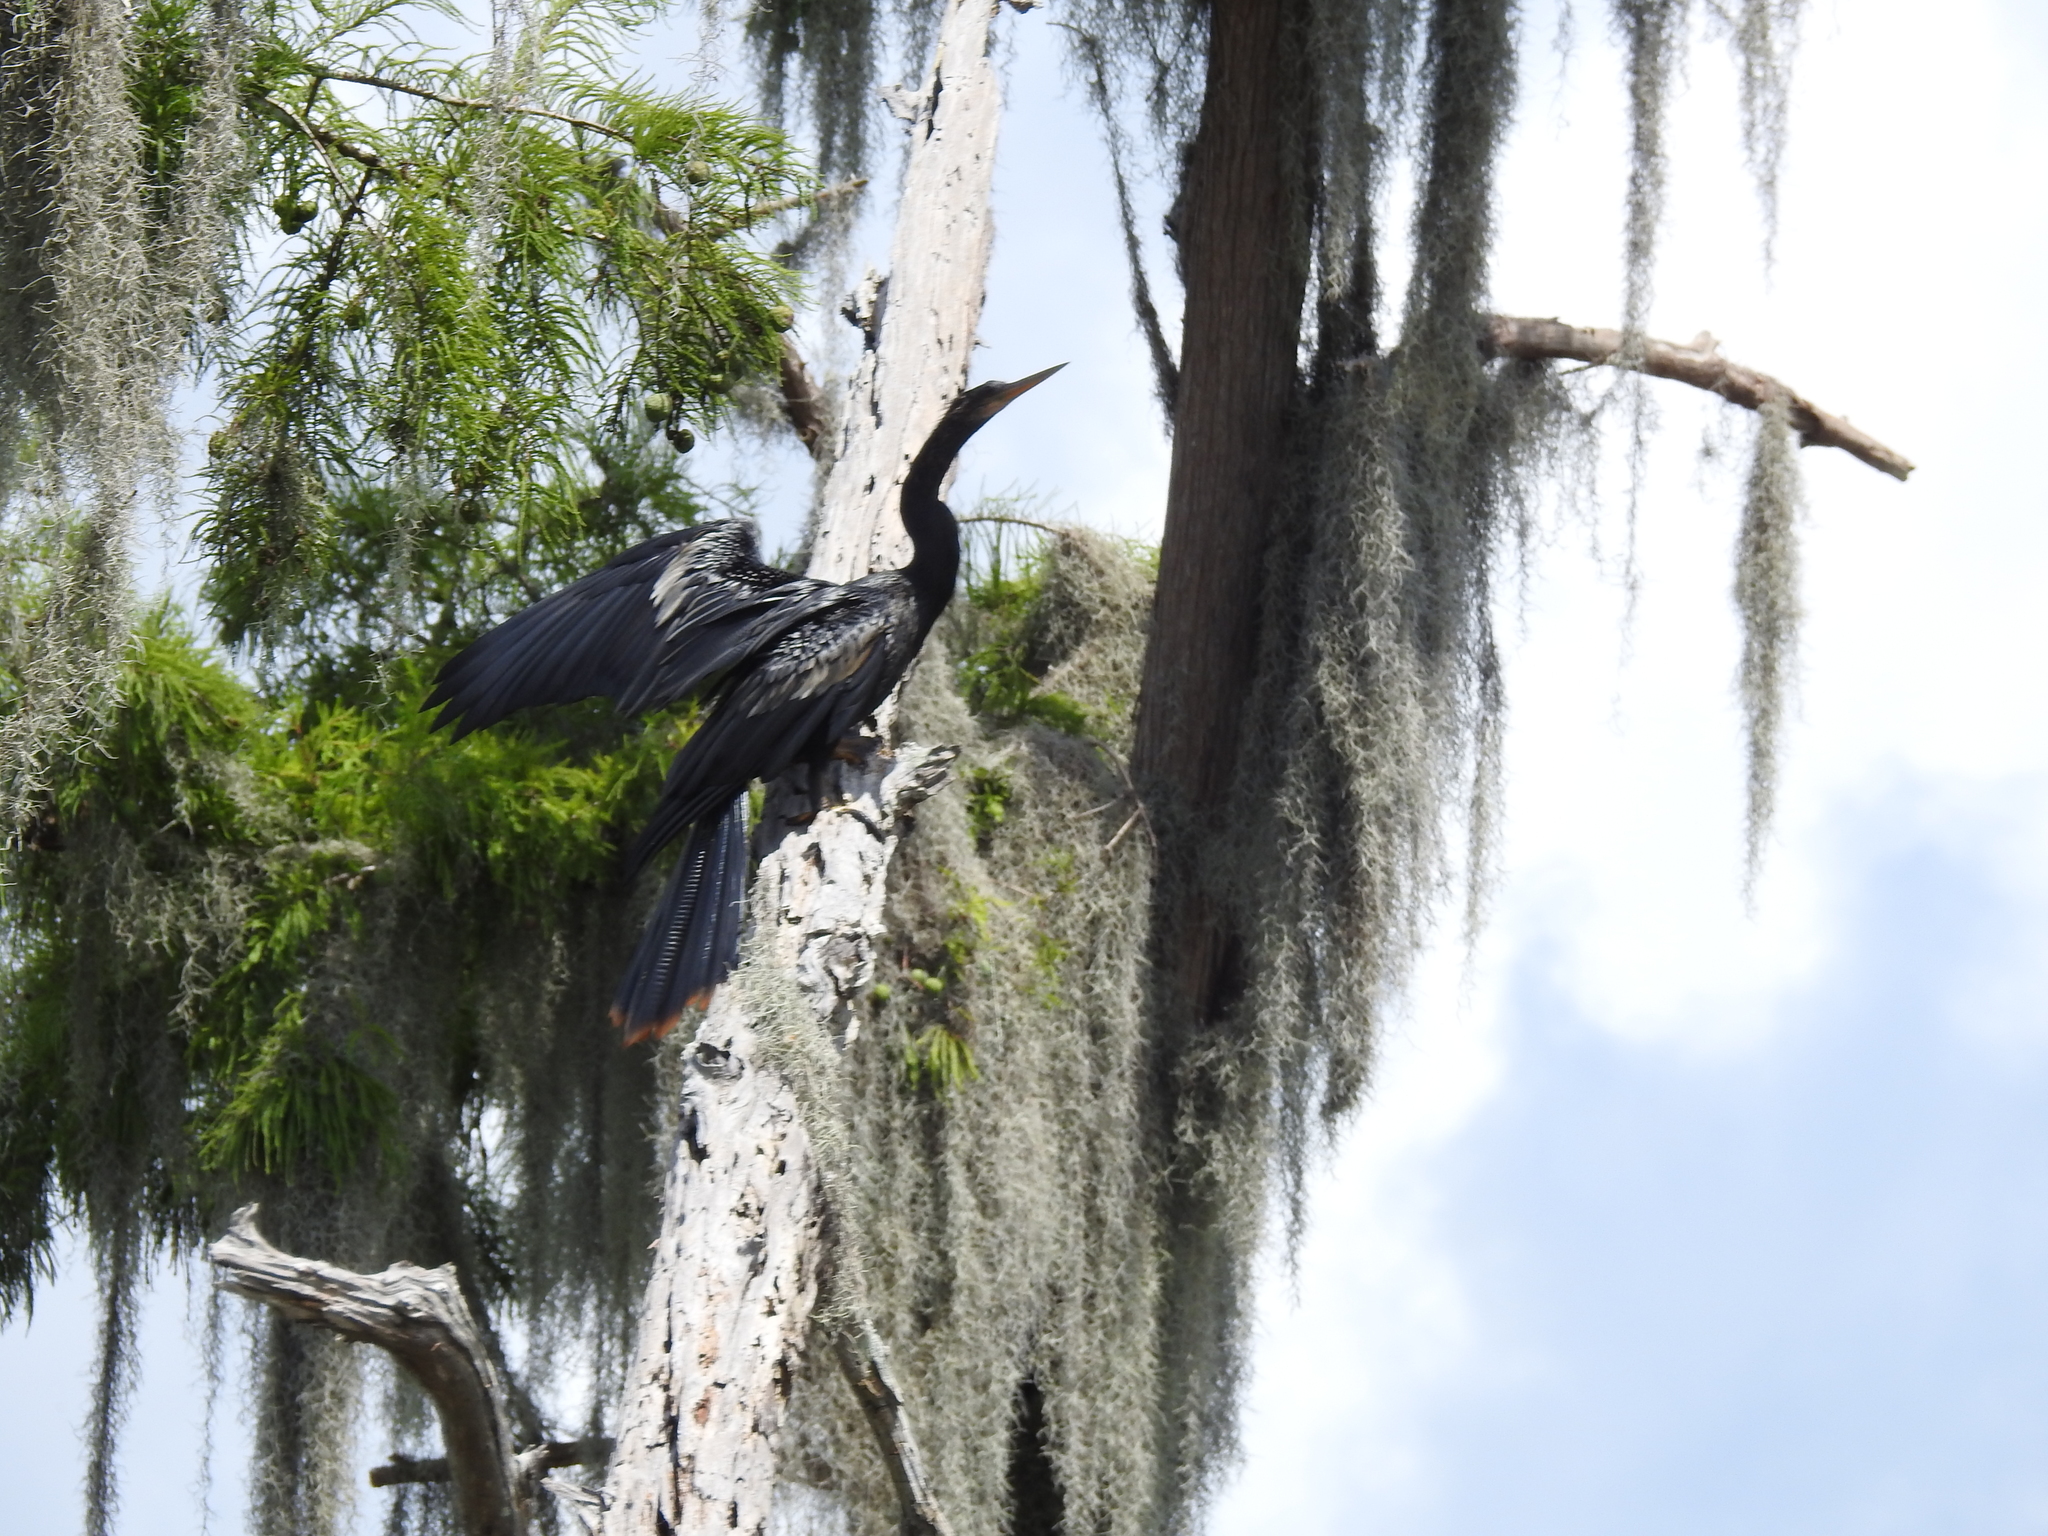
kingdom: Animalia
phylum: Chordata
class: Aves
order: Suliformes
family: Anhingidae
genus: Anhinga
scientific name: Anhinga anhinga
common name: Anhinga
